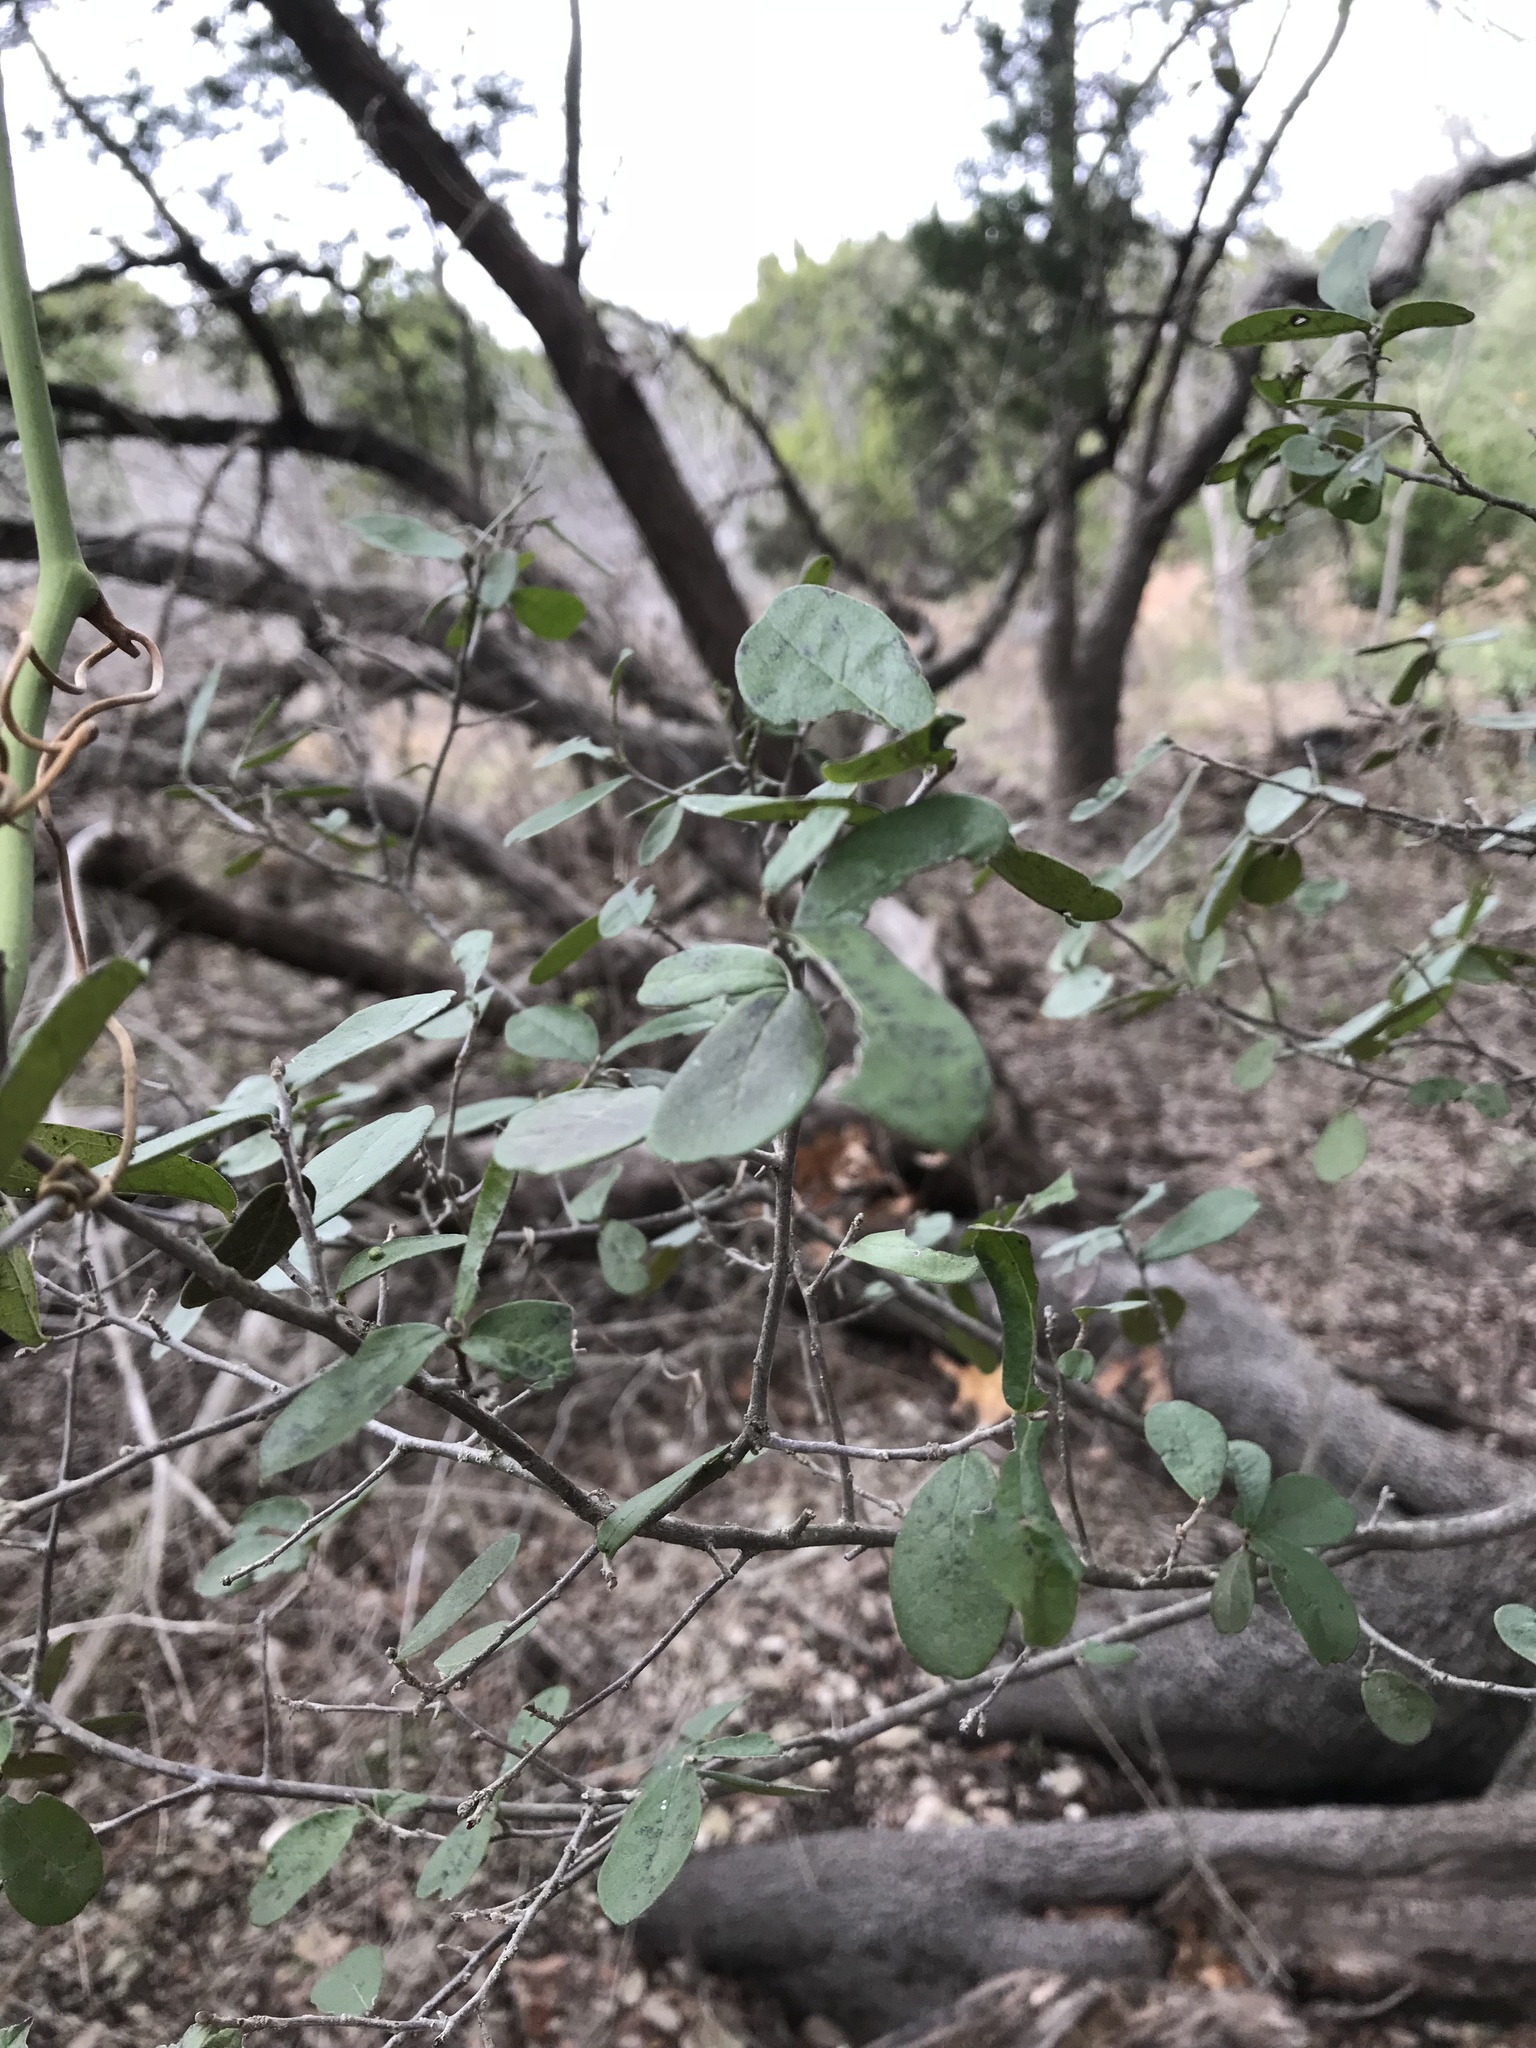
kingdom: Plantae
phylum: Tracheophyta
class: Magnoliopsida
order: Ericales
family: Ebenaceae
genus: Diospyros
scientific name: Diospyros texana
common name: Texas persimmon
